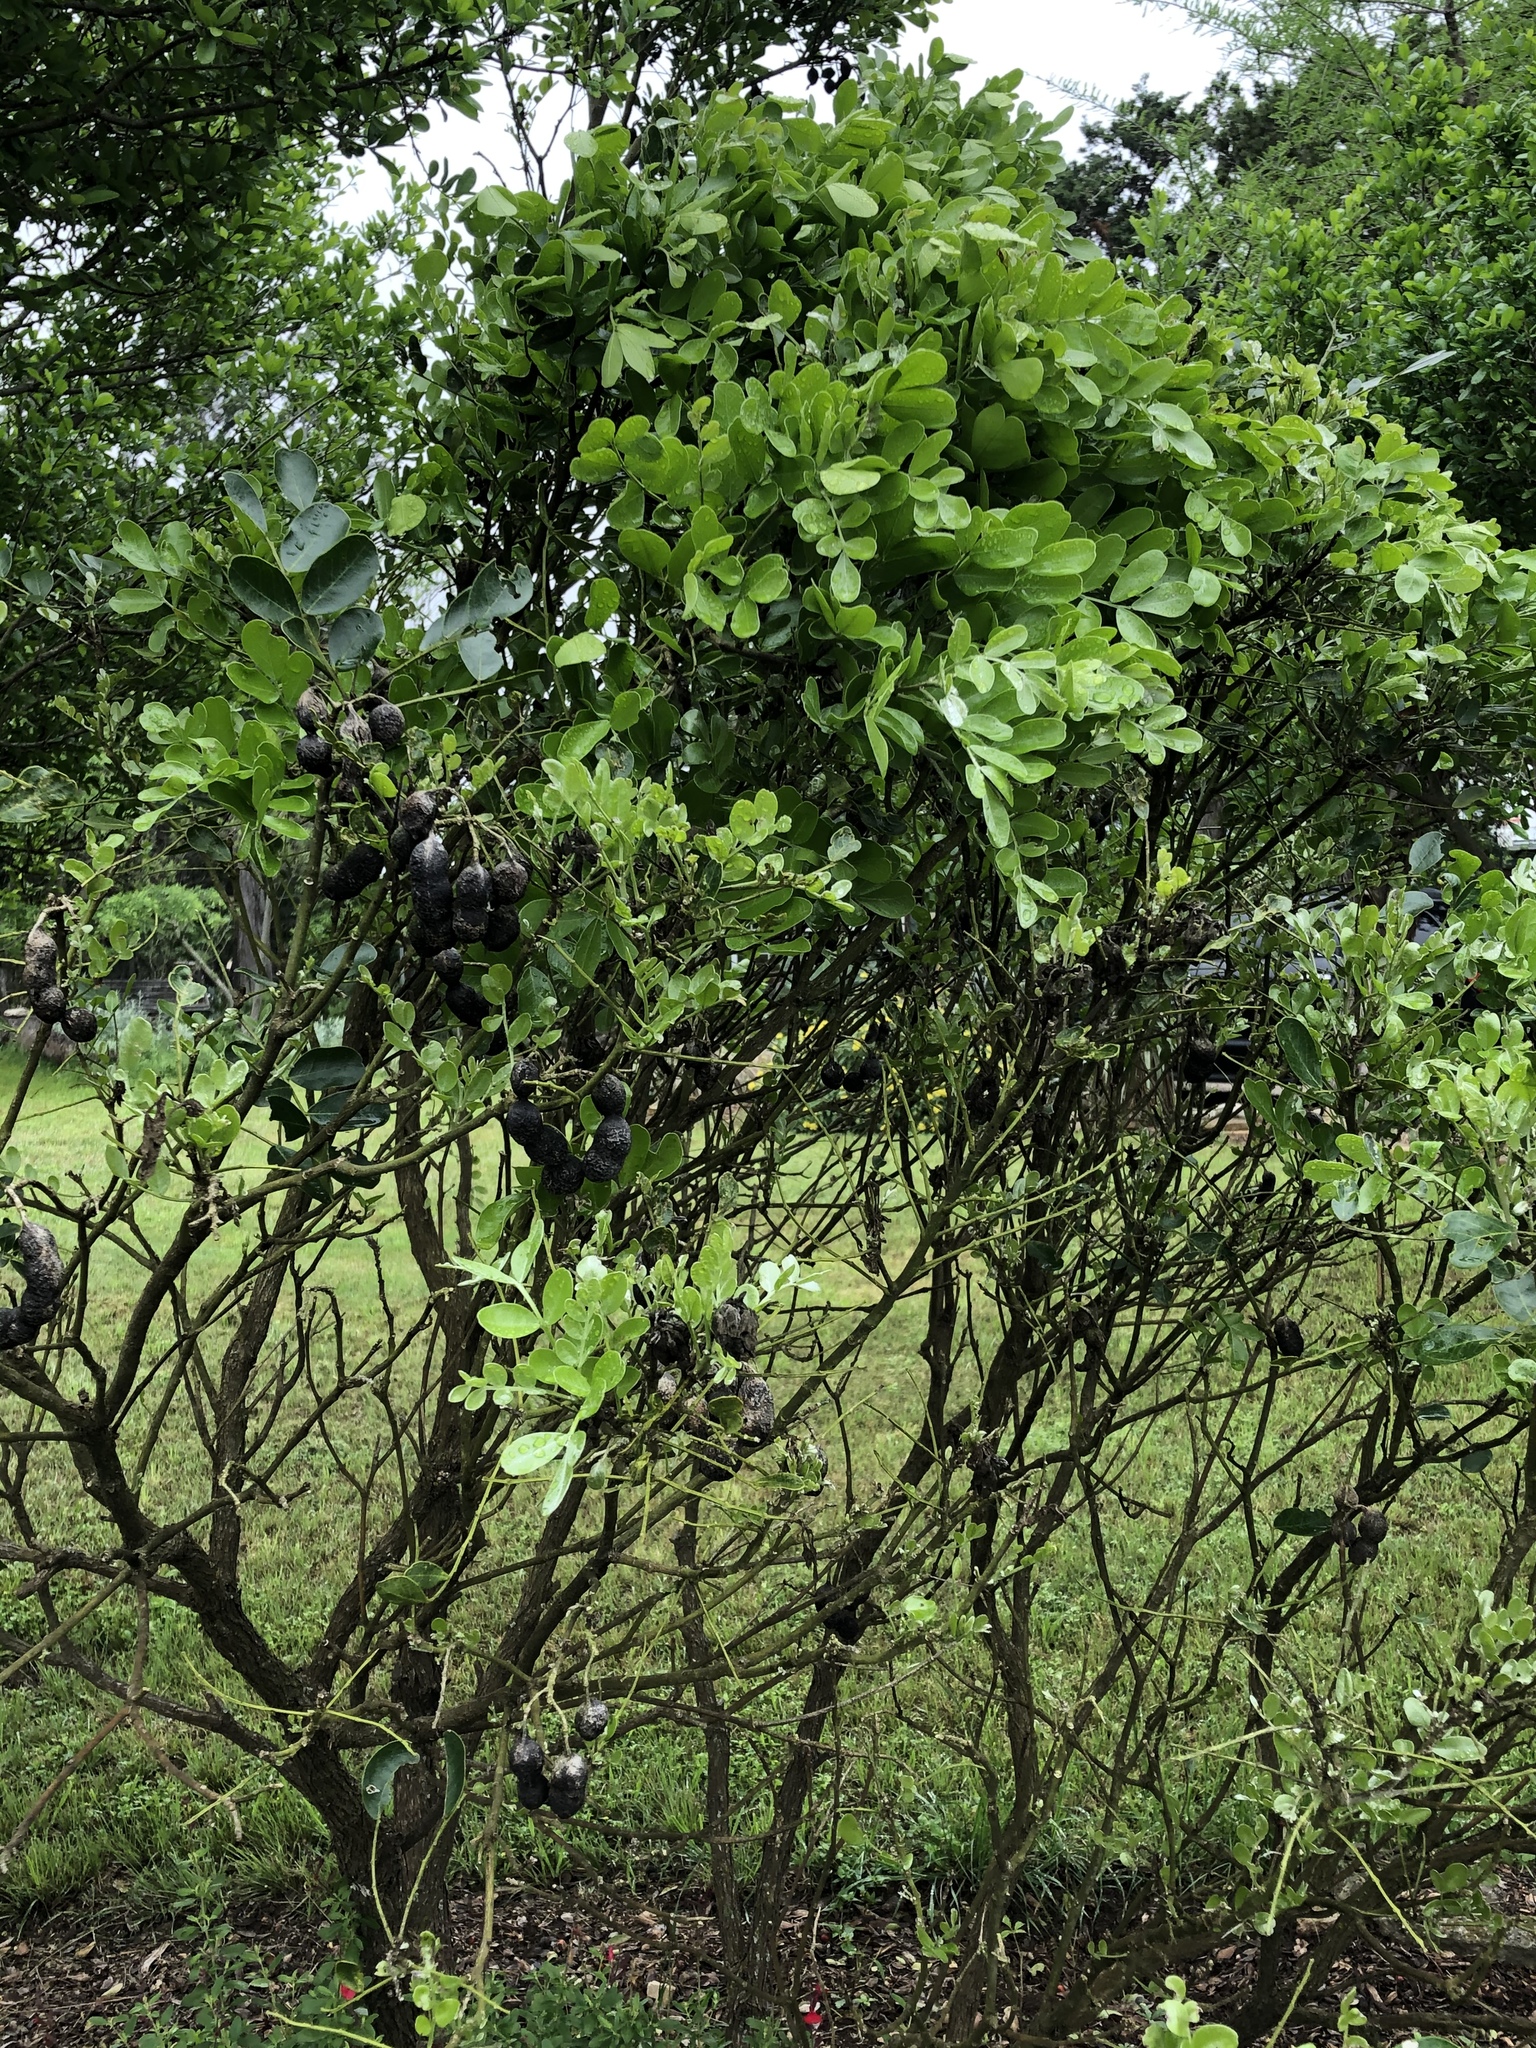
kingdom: Plantae
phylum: Tracheophyta
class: Magnoliopsida
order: Fabales
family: Fabaceae
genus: Dermatophyllum
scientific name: Dermatophyllum secundiflorum
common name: Texas-mountain-laurel
